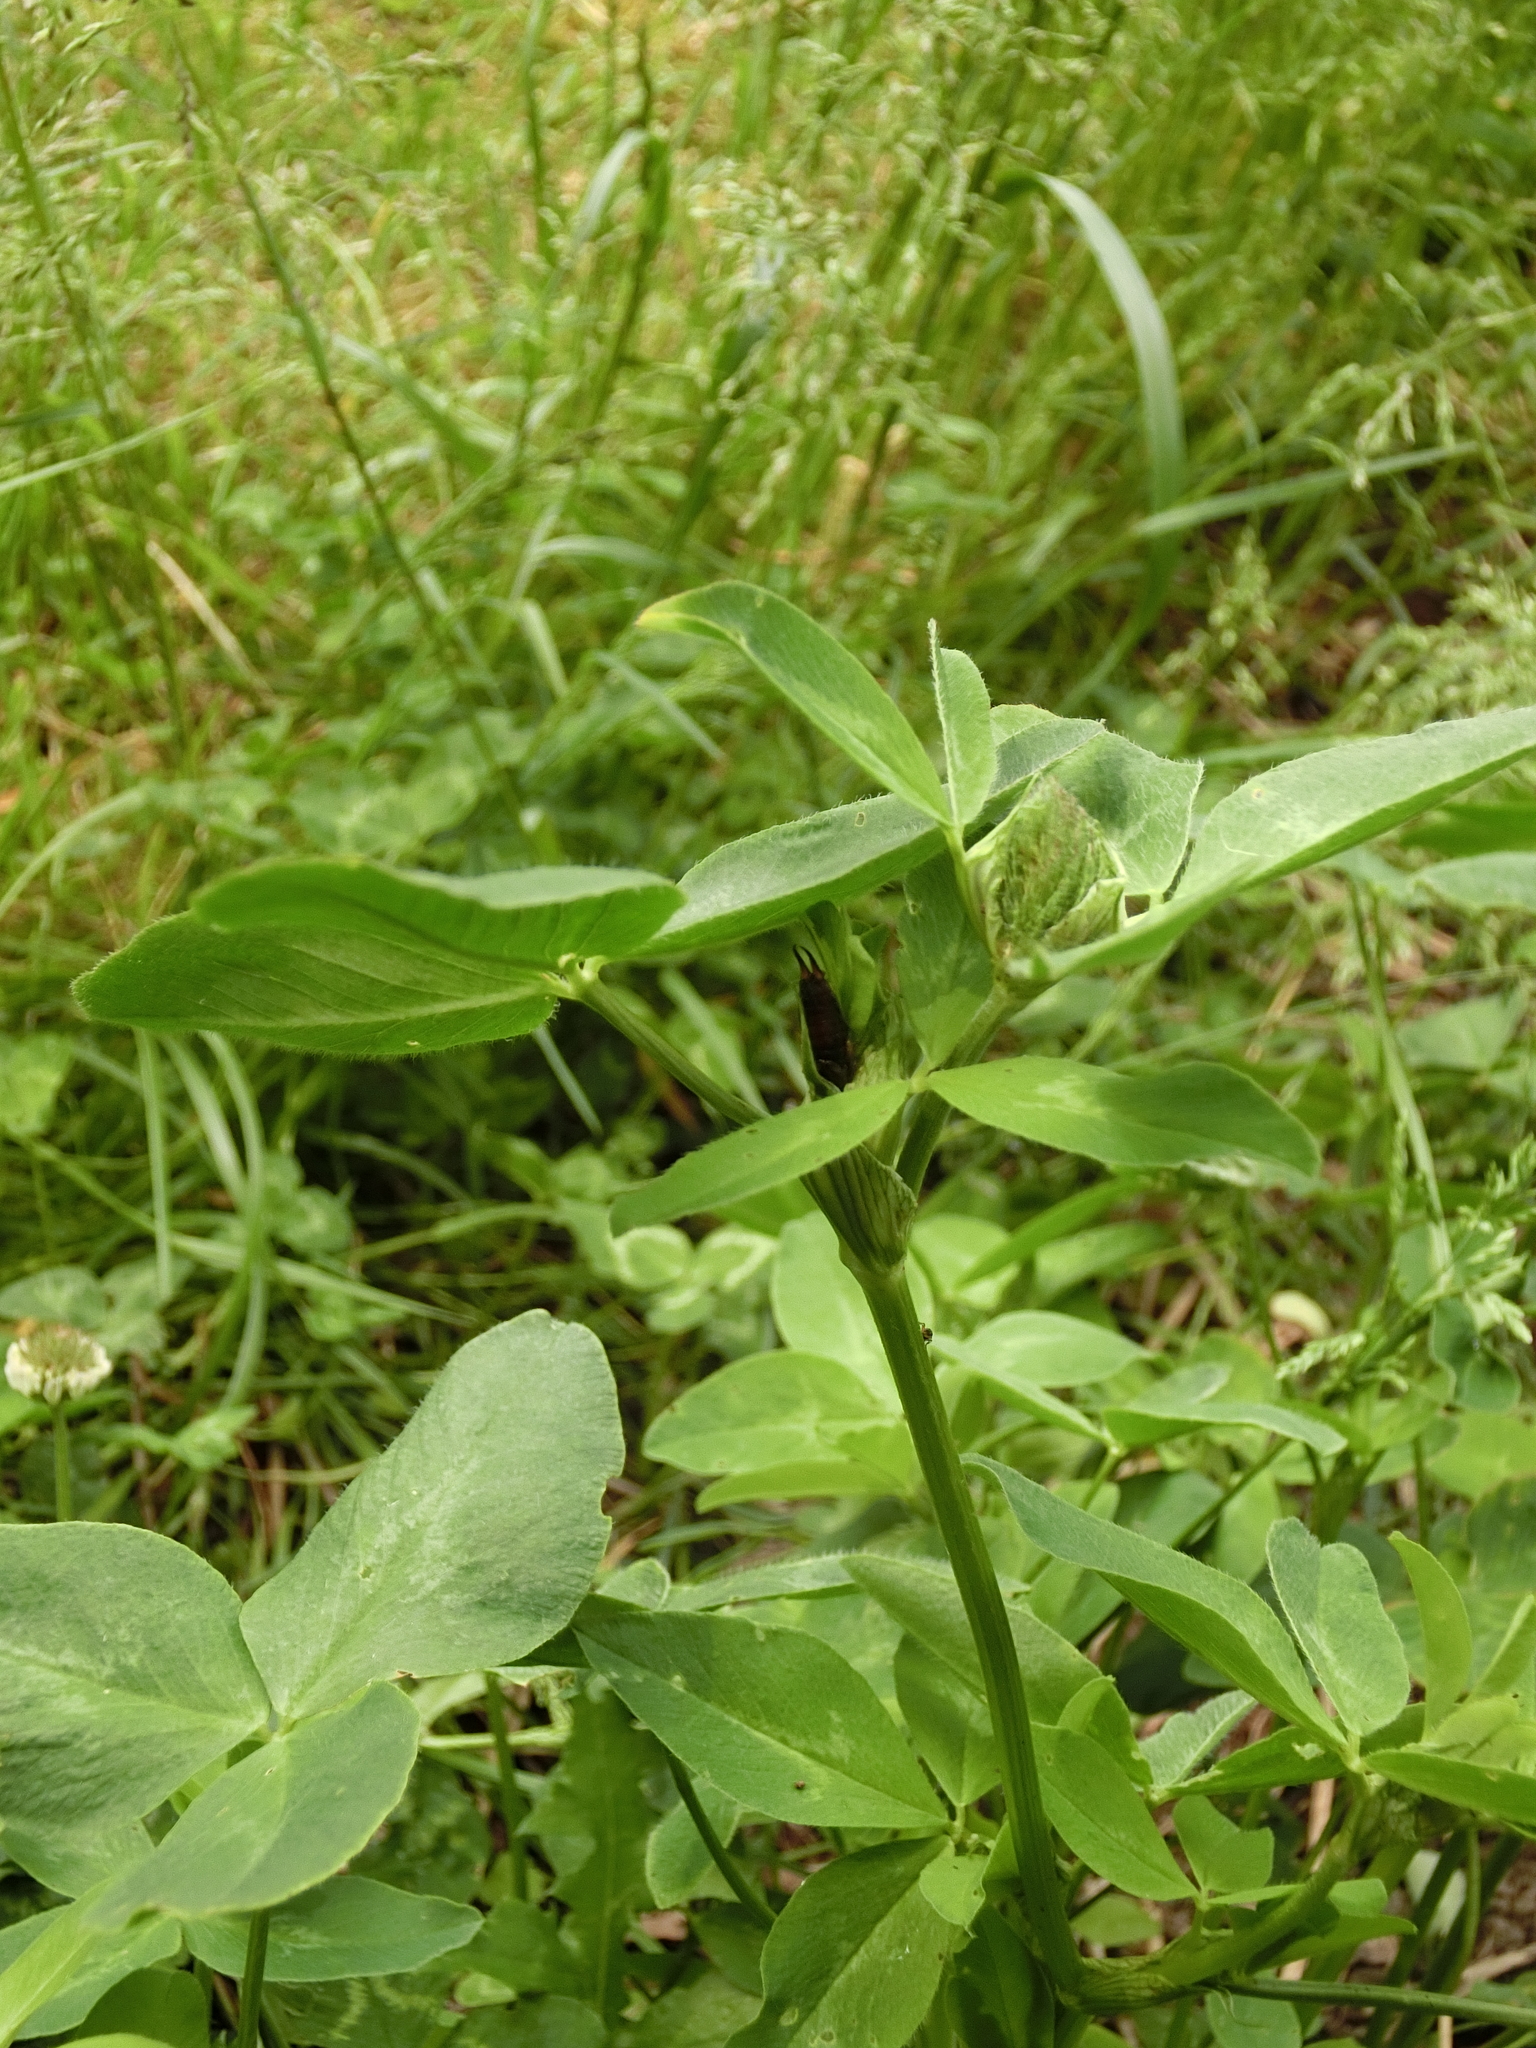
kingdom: Animalia
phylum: Arthropoda
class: Insecta
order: Dermaptera
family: Forficulidae
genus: Forficula
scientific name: Forficula
